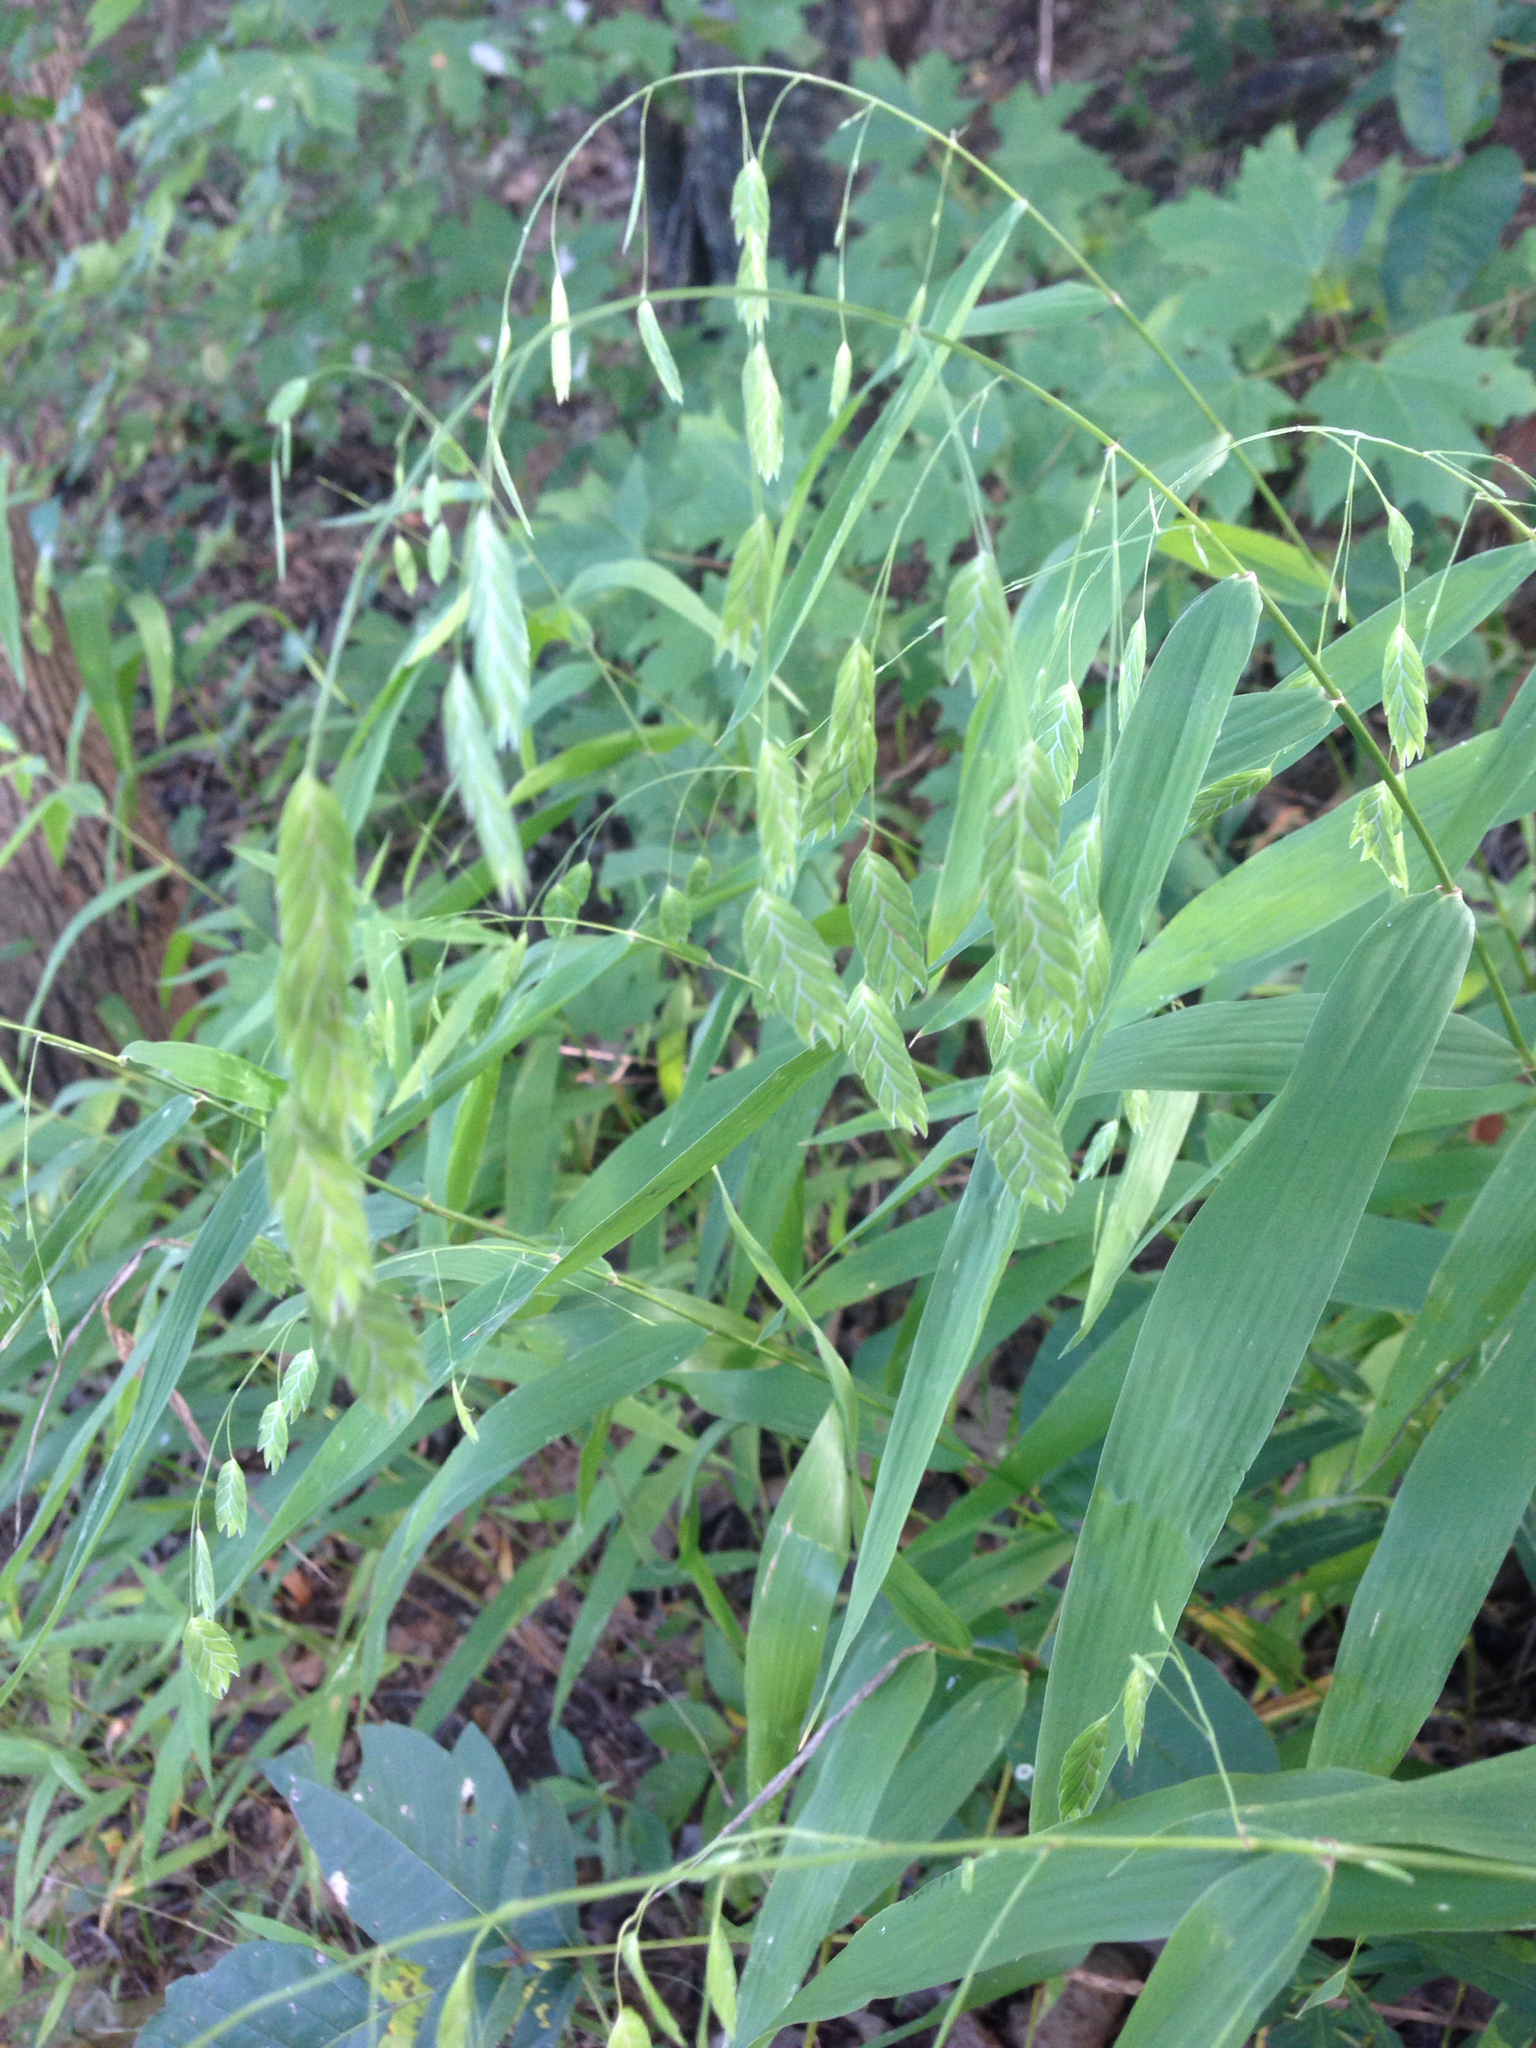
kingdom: Plantae
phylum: Tracheophyta
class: Liliopsida
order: Poales
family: Poaceae
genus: Chasmanthium
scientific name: Chasmanthium latifolium
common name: Broad-leaved chasmanthium
